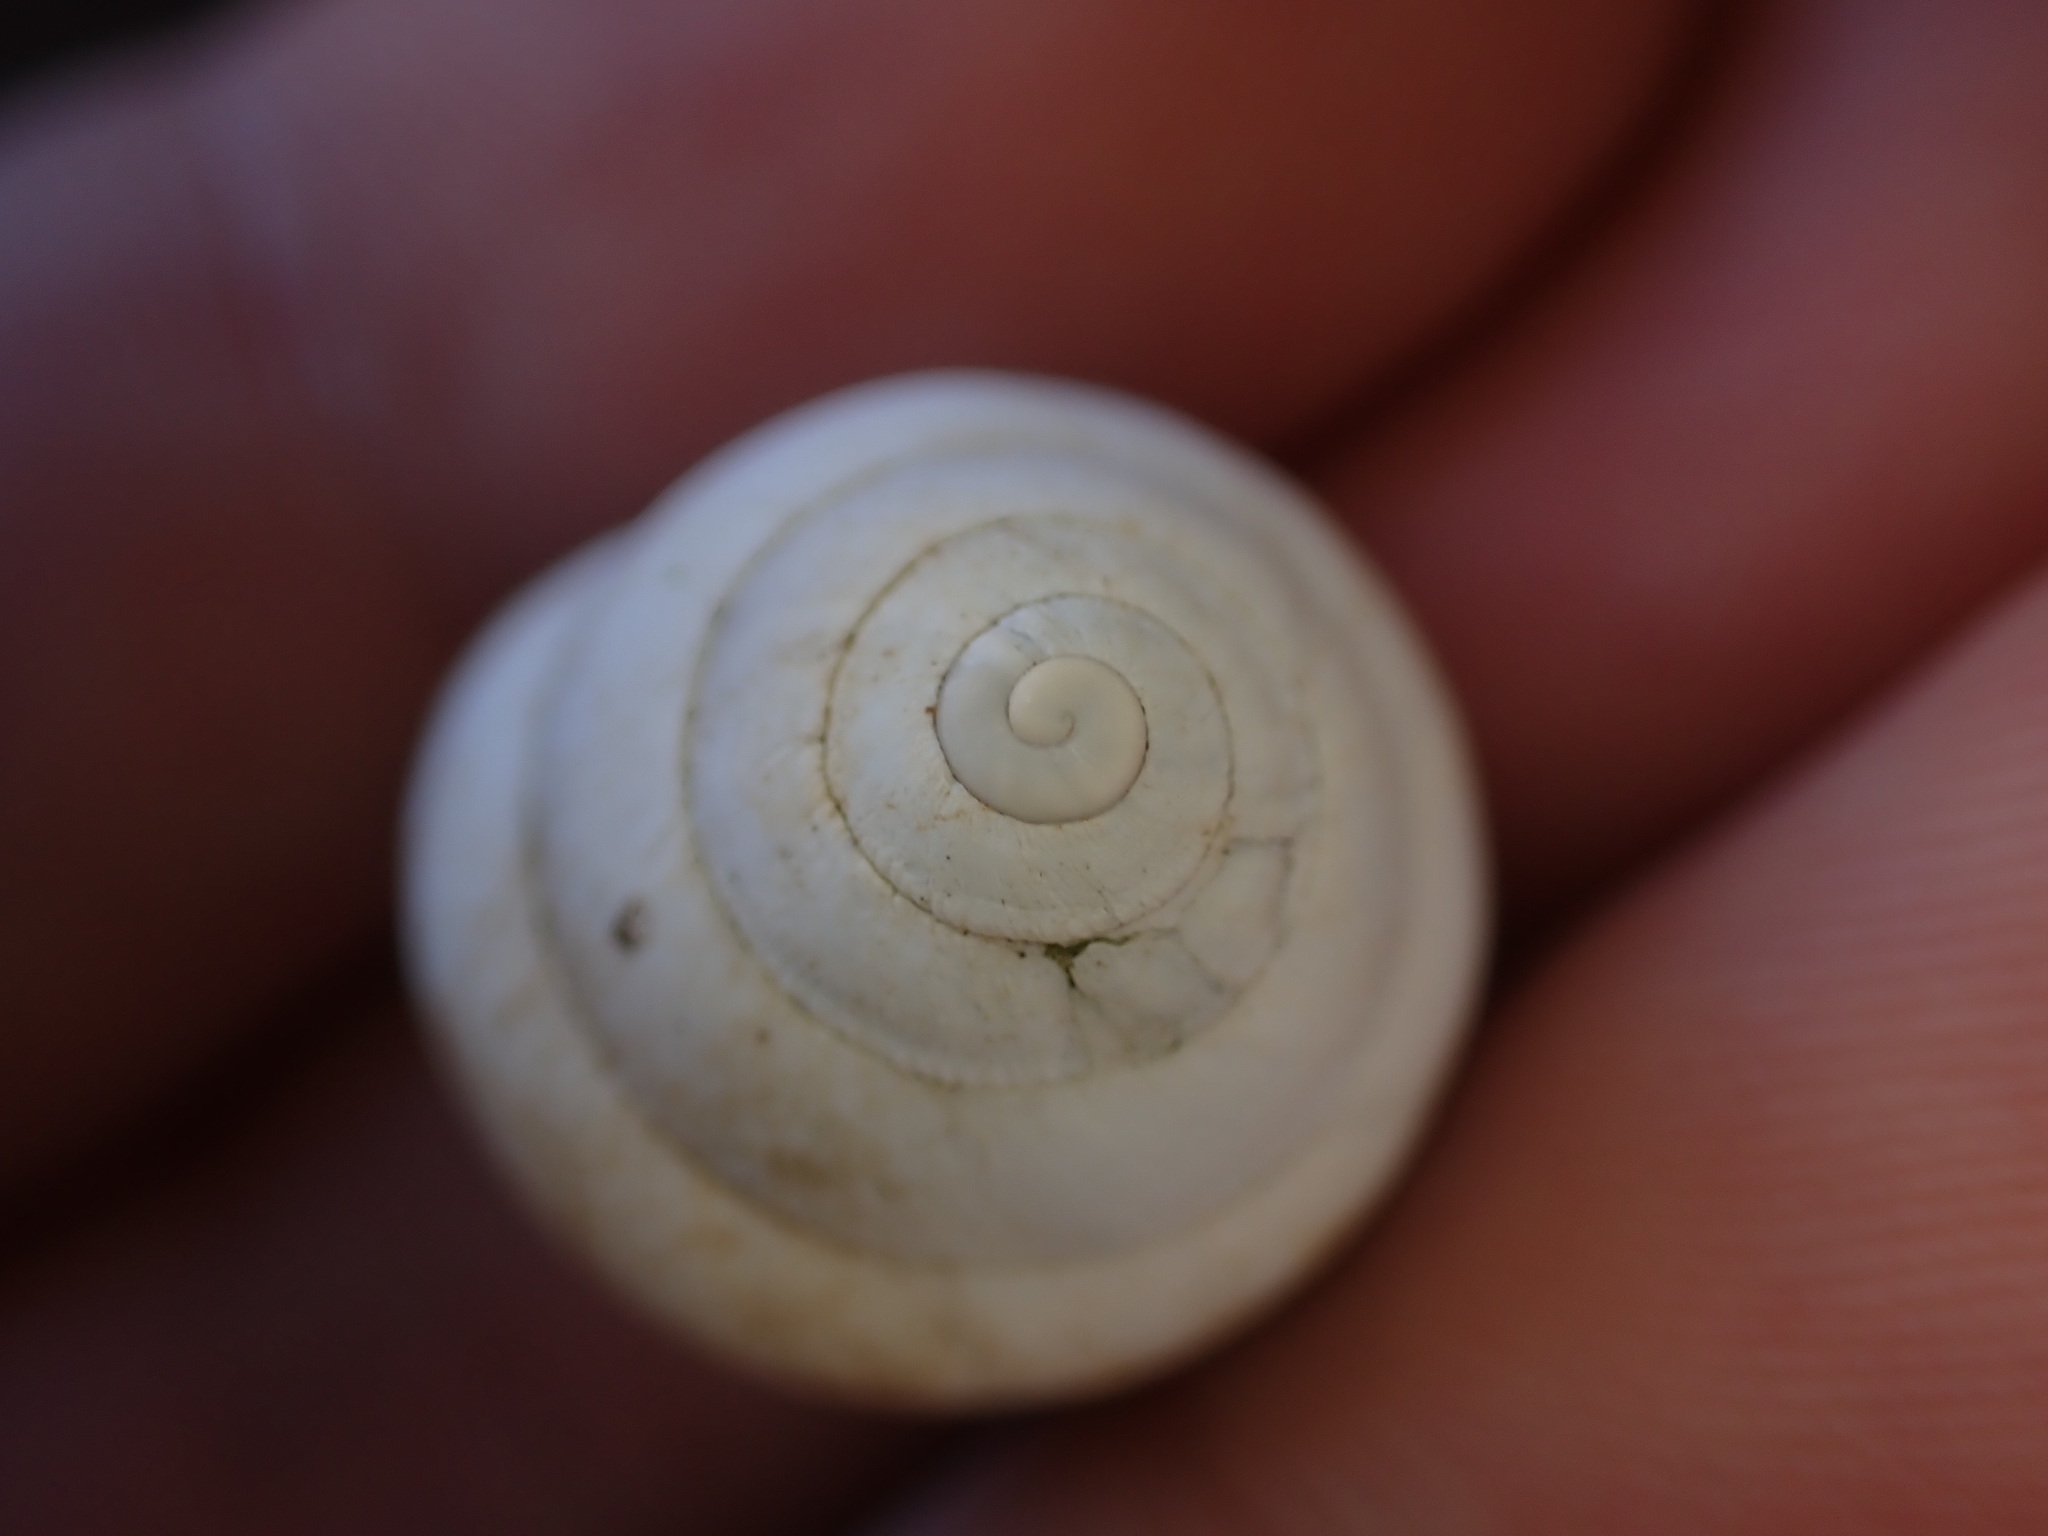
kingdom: Animalia
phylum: Mollusca
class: Gastropoda
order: Stylommatophora
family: Sphincterochilidae
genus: Sphincterochila
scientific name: Sphincterochila candidissima
